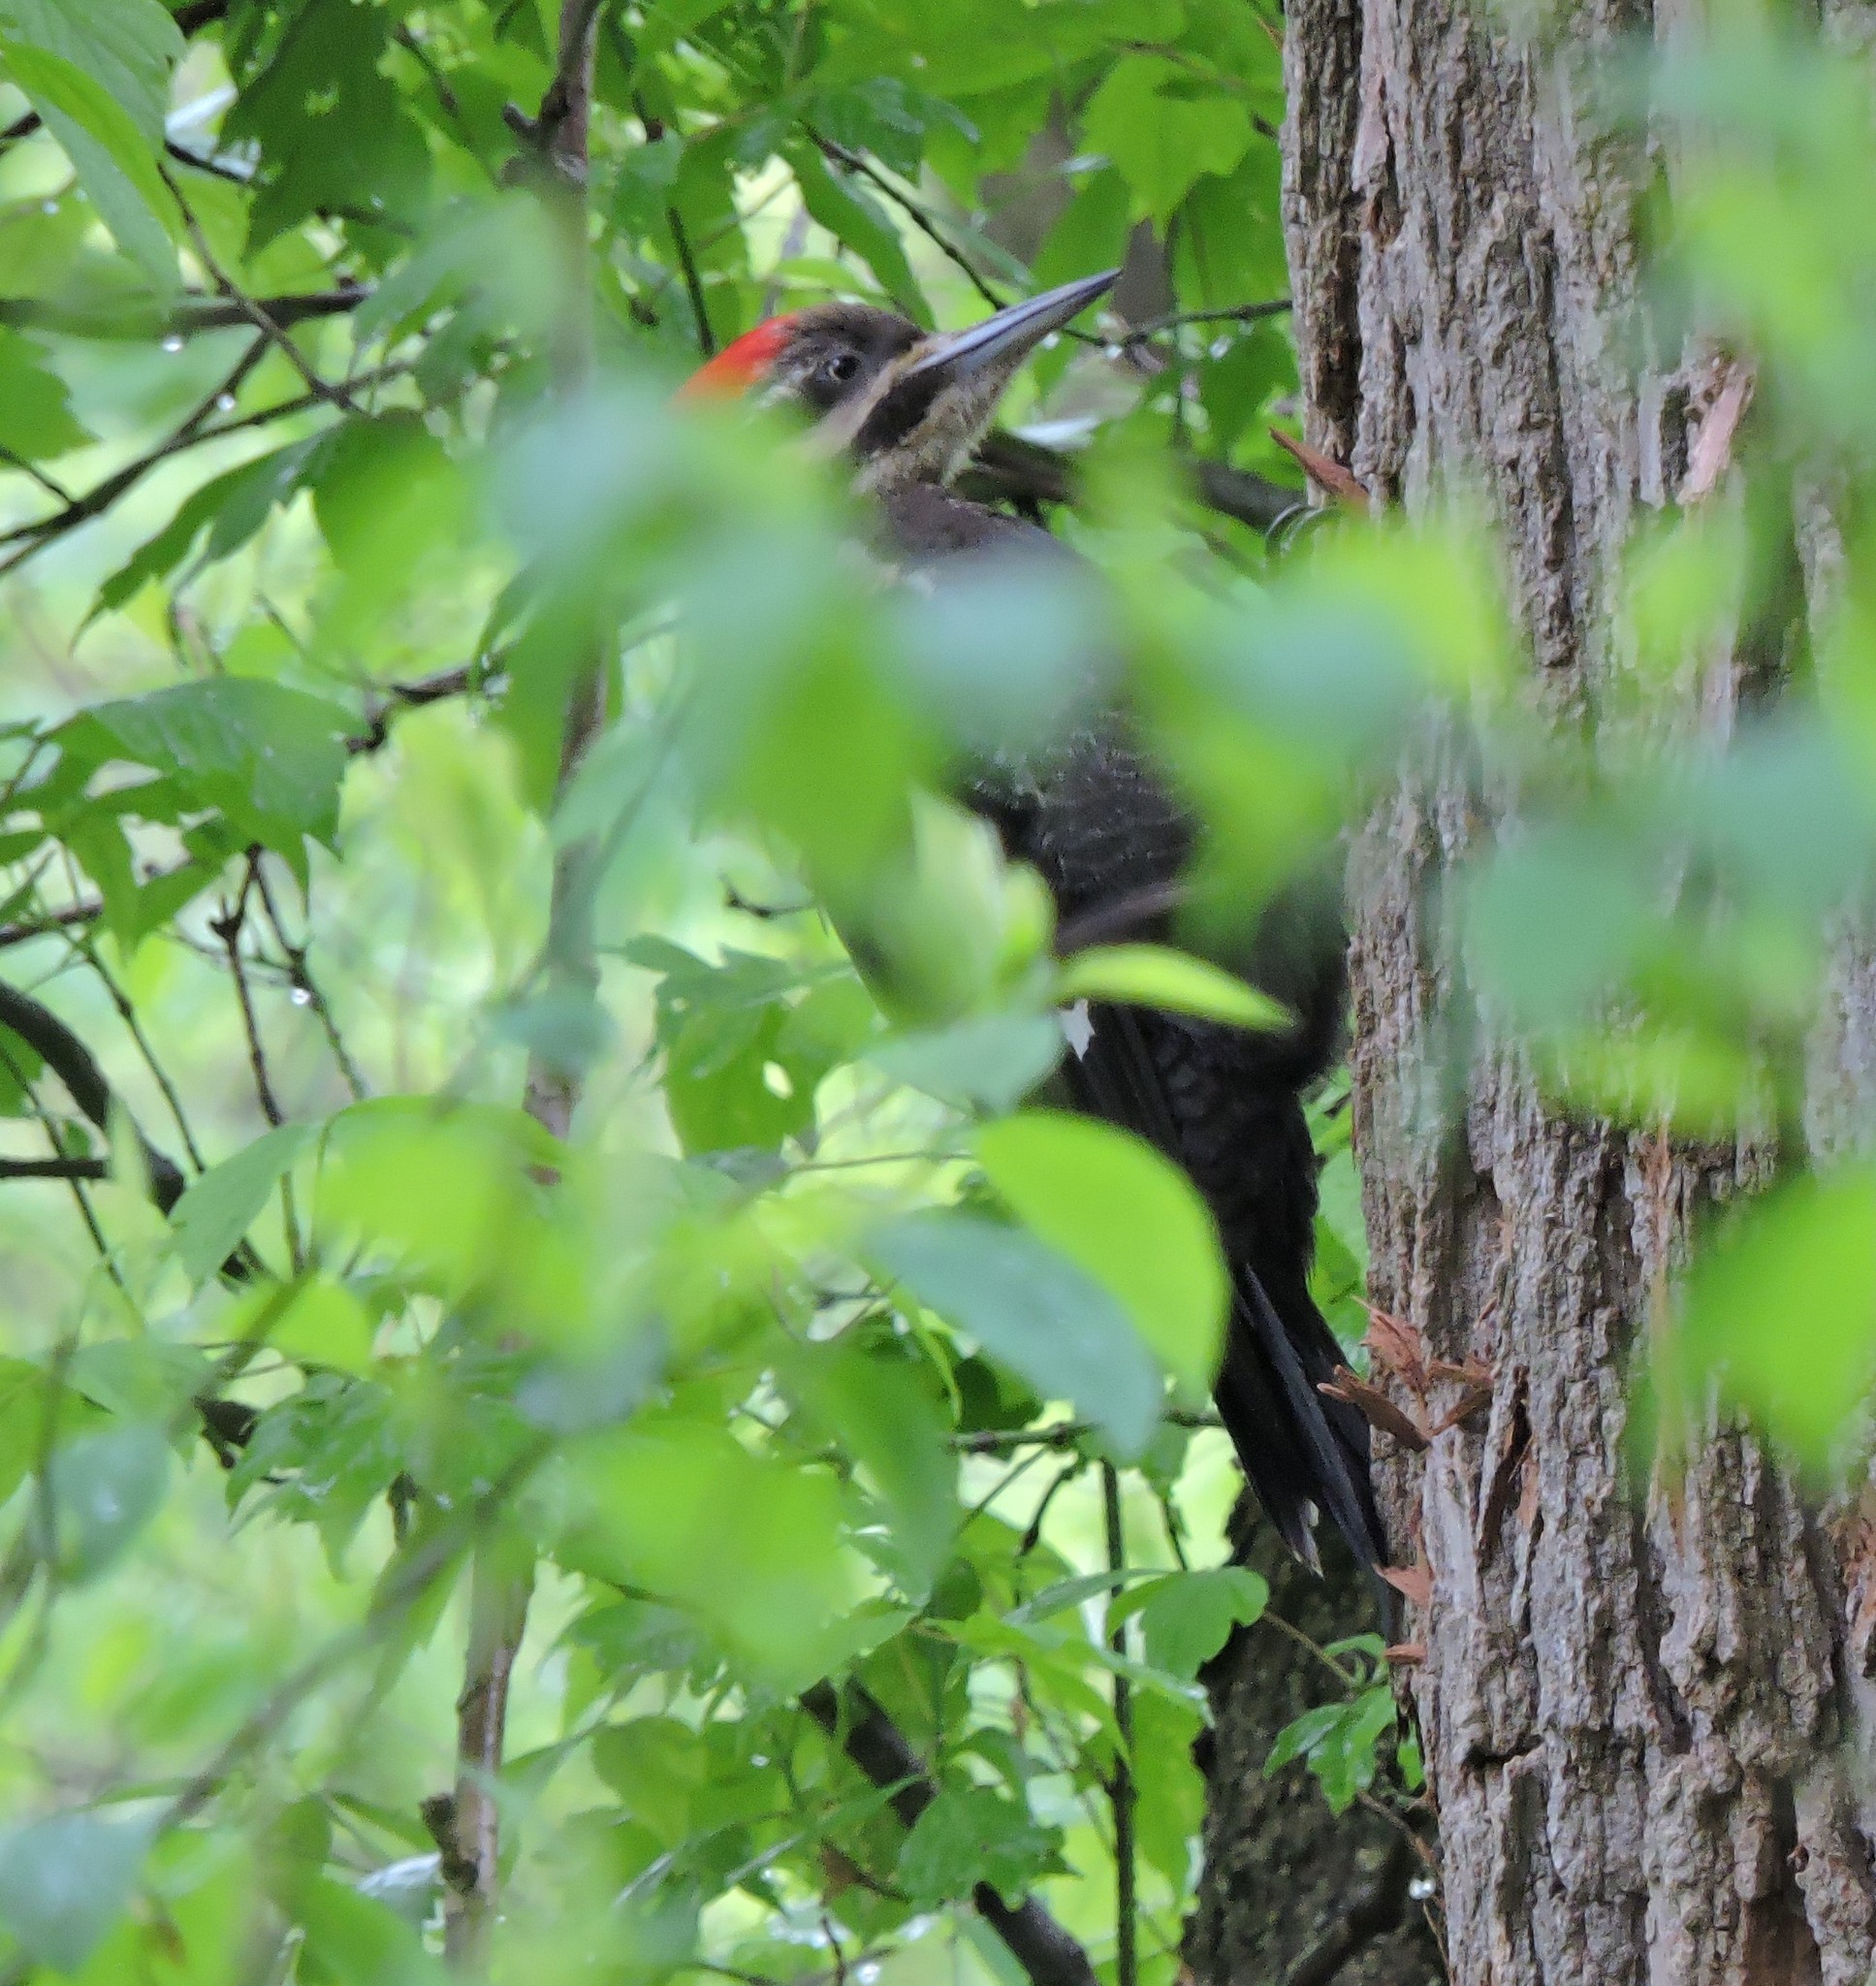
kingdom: Animalia
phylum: Chordata
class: Aves
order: Piciformes
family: Picidae
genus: Dryocopus
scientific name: Dryocopus pileatus
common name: Pileated woodpecker
